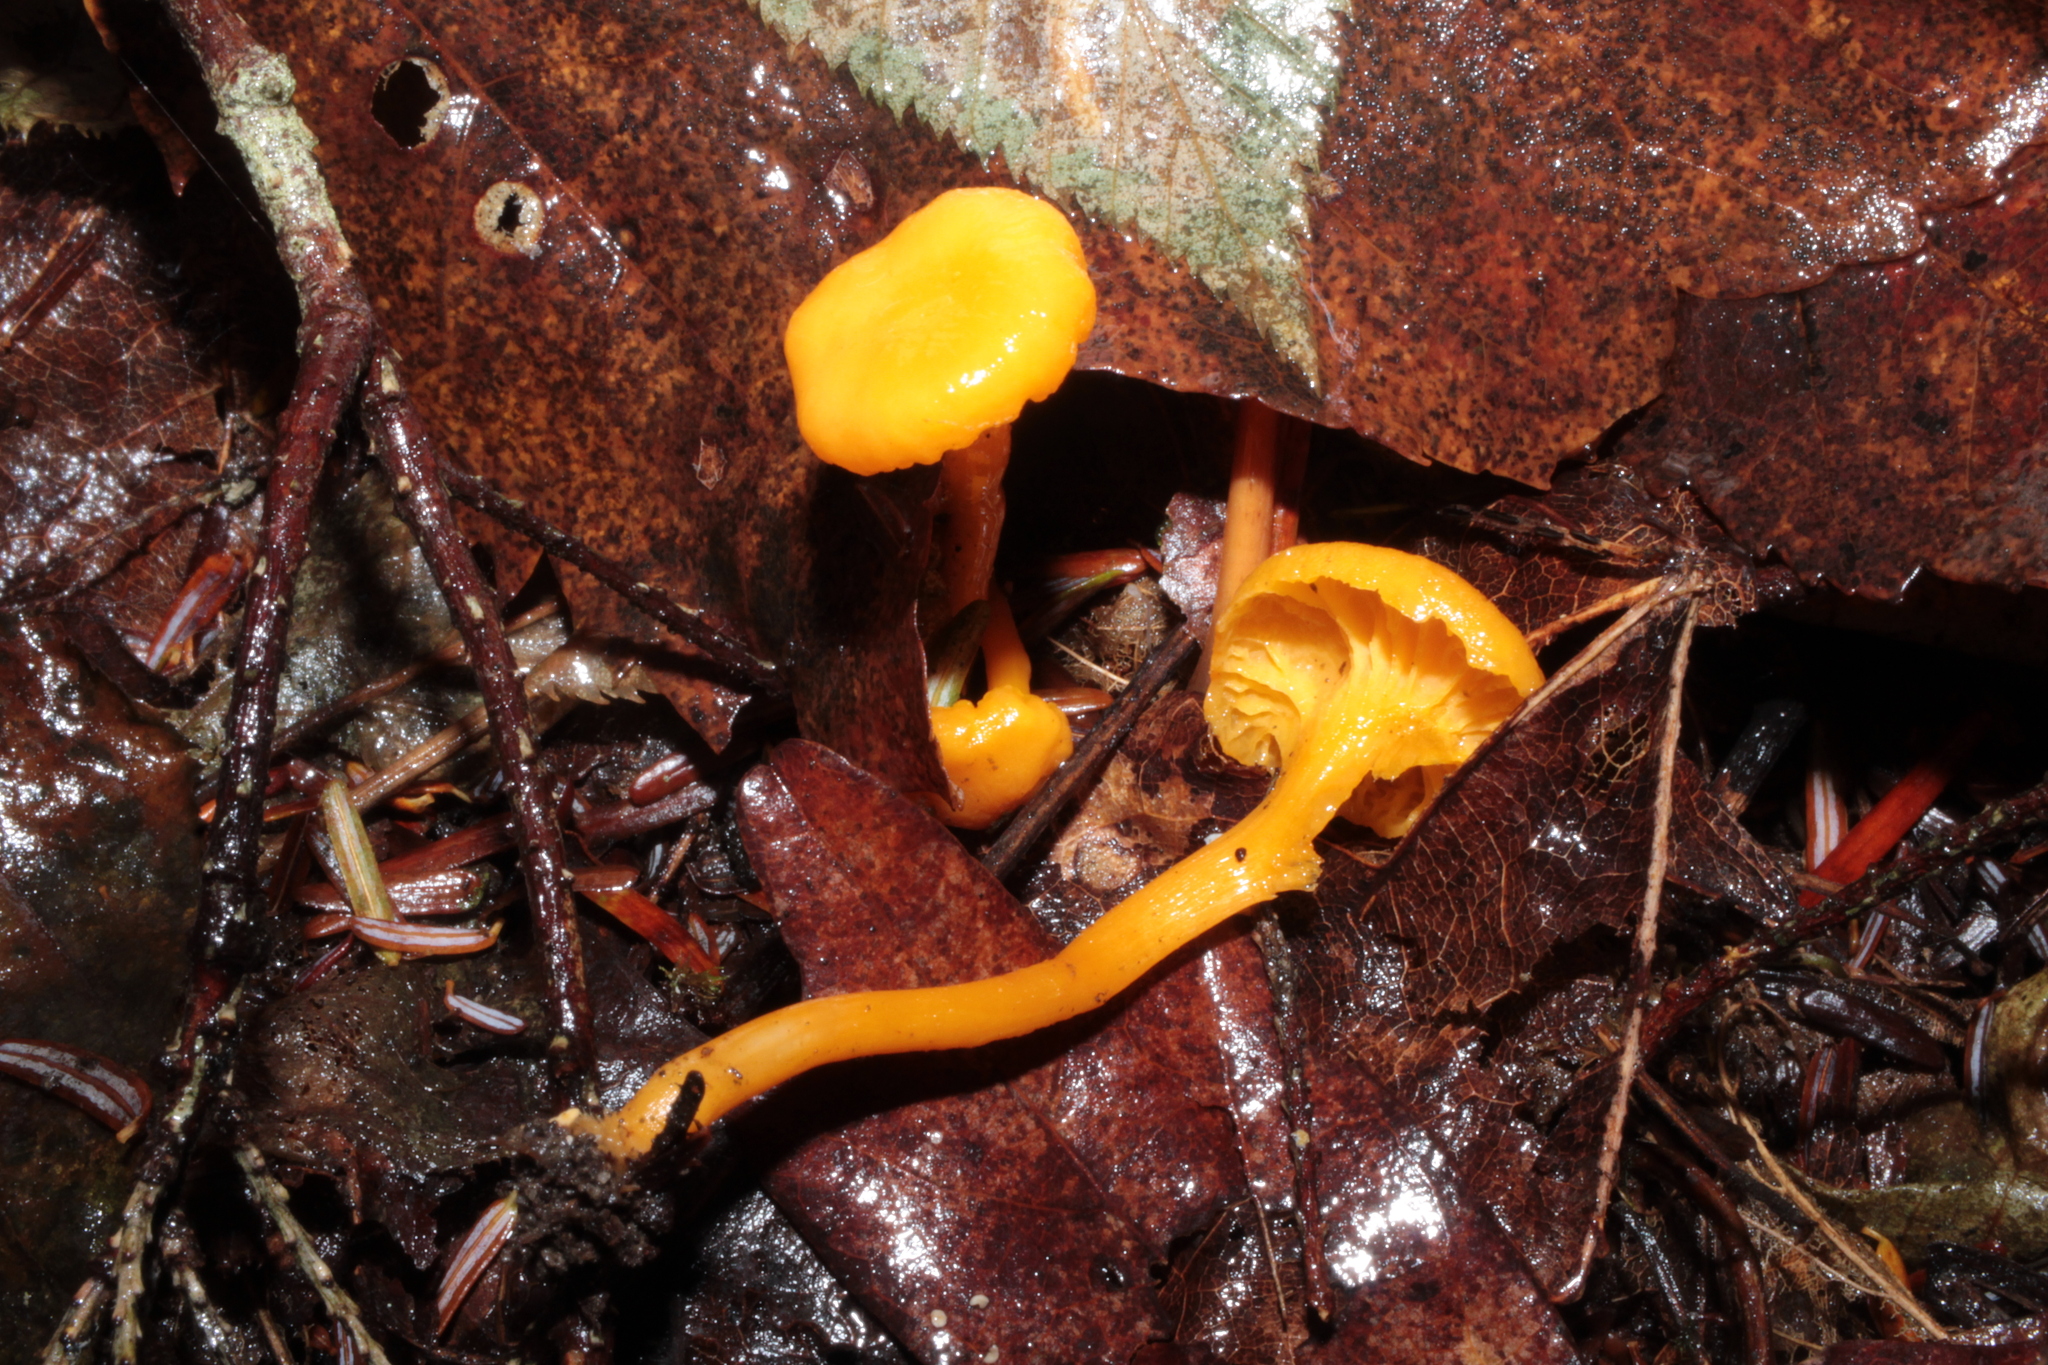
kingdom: Fungi
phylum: Basidiomycota
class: Agaricomycetes
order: Cantharellales
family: Hydnaceae
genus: Cantharellus
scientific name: Cantharellus minor
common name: Small chanterelle
